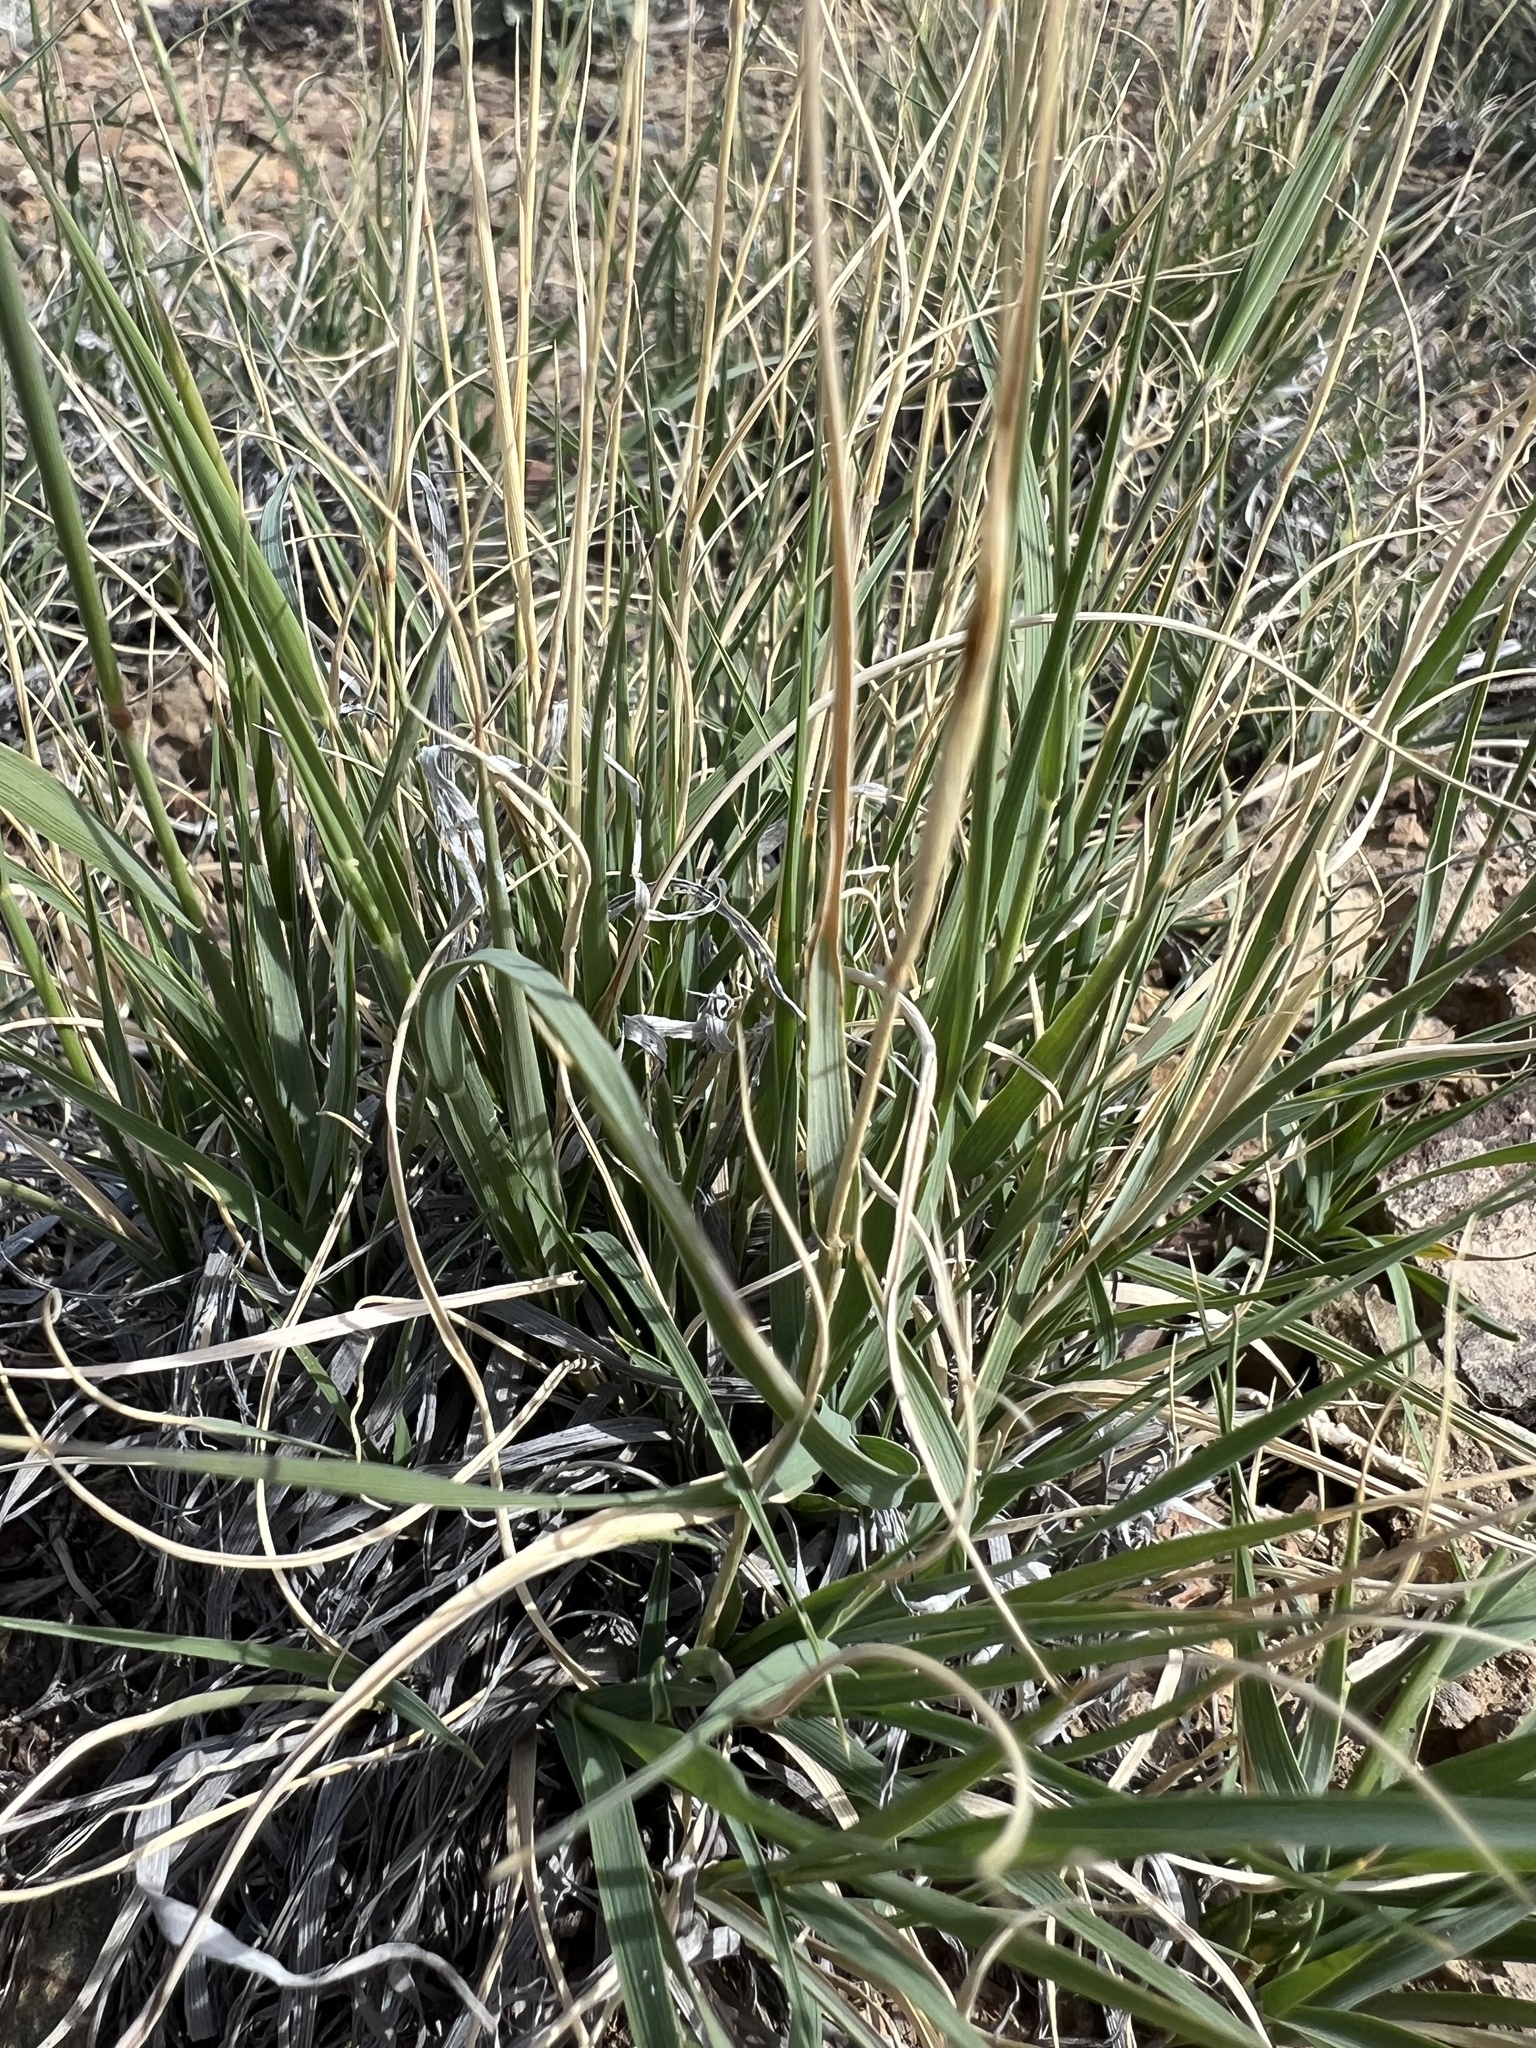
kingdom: Plantae
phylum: Tracheophyta
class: Liliopsida
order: Poales
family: Poaceae
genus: Hilaria
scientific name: Hilaria jamesii
